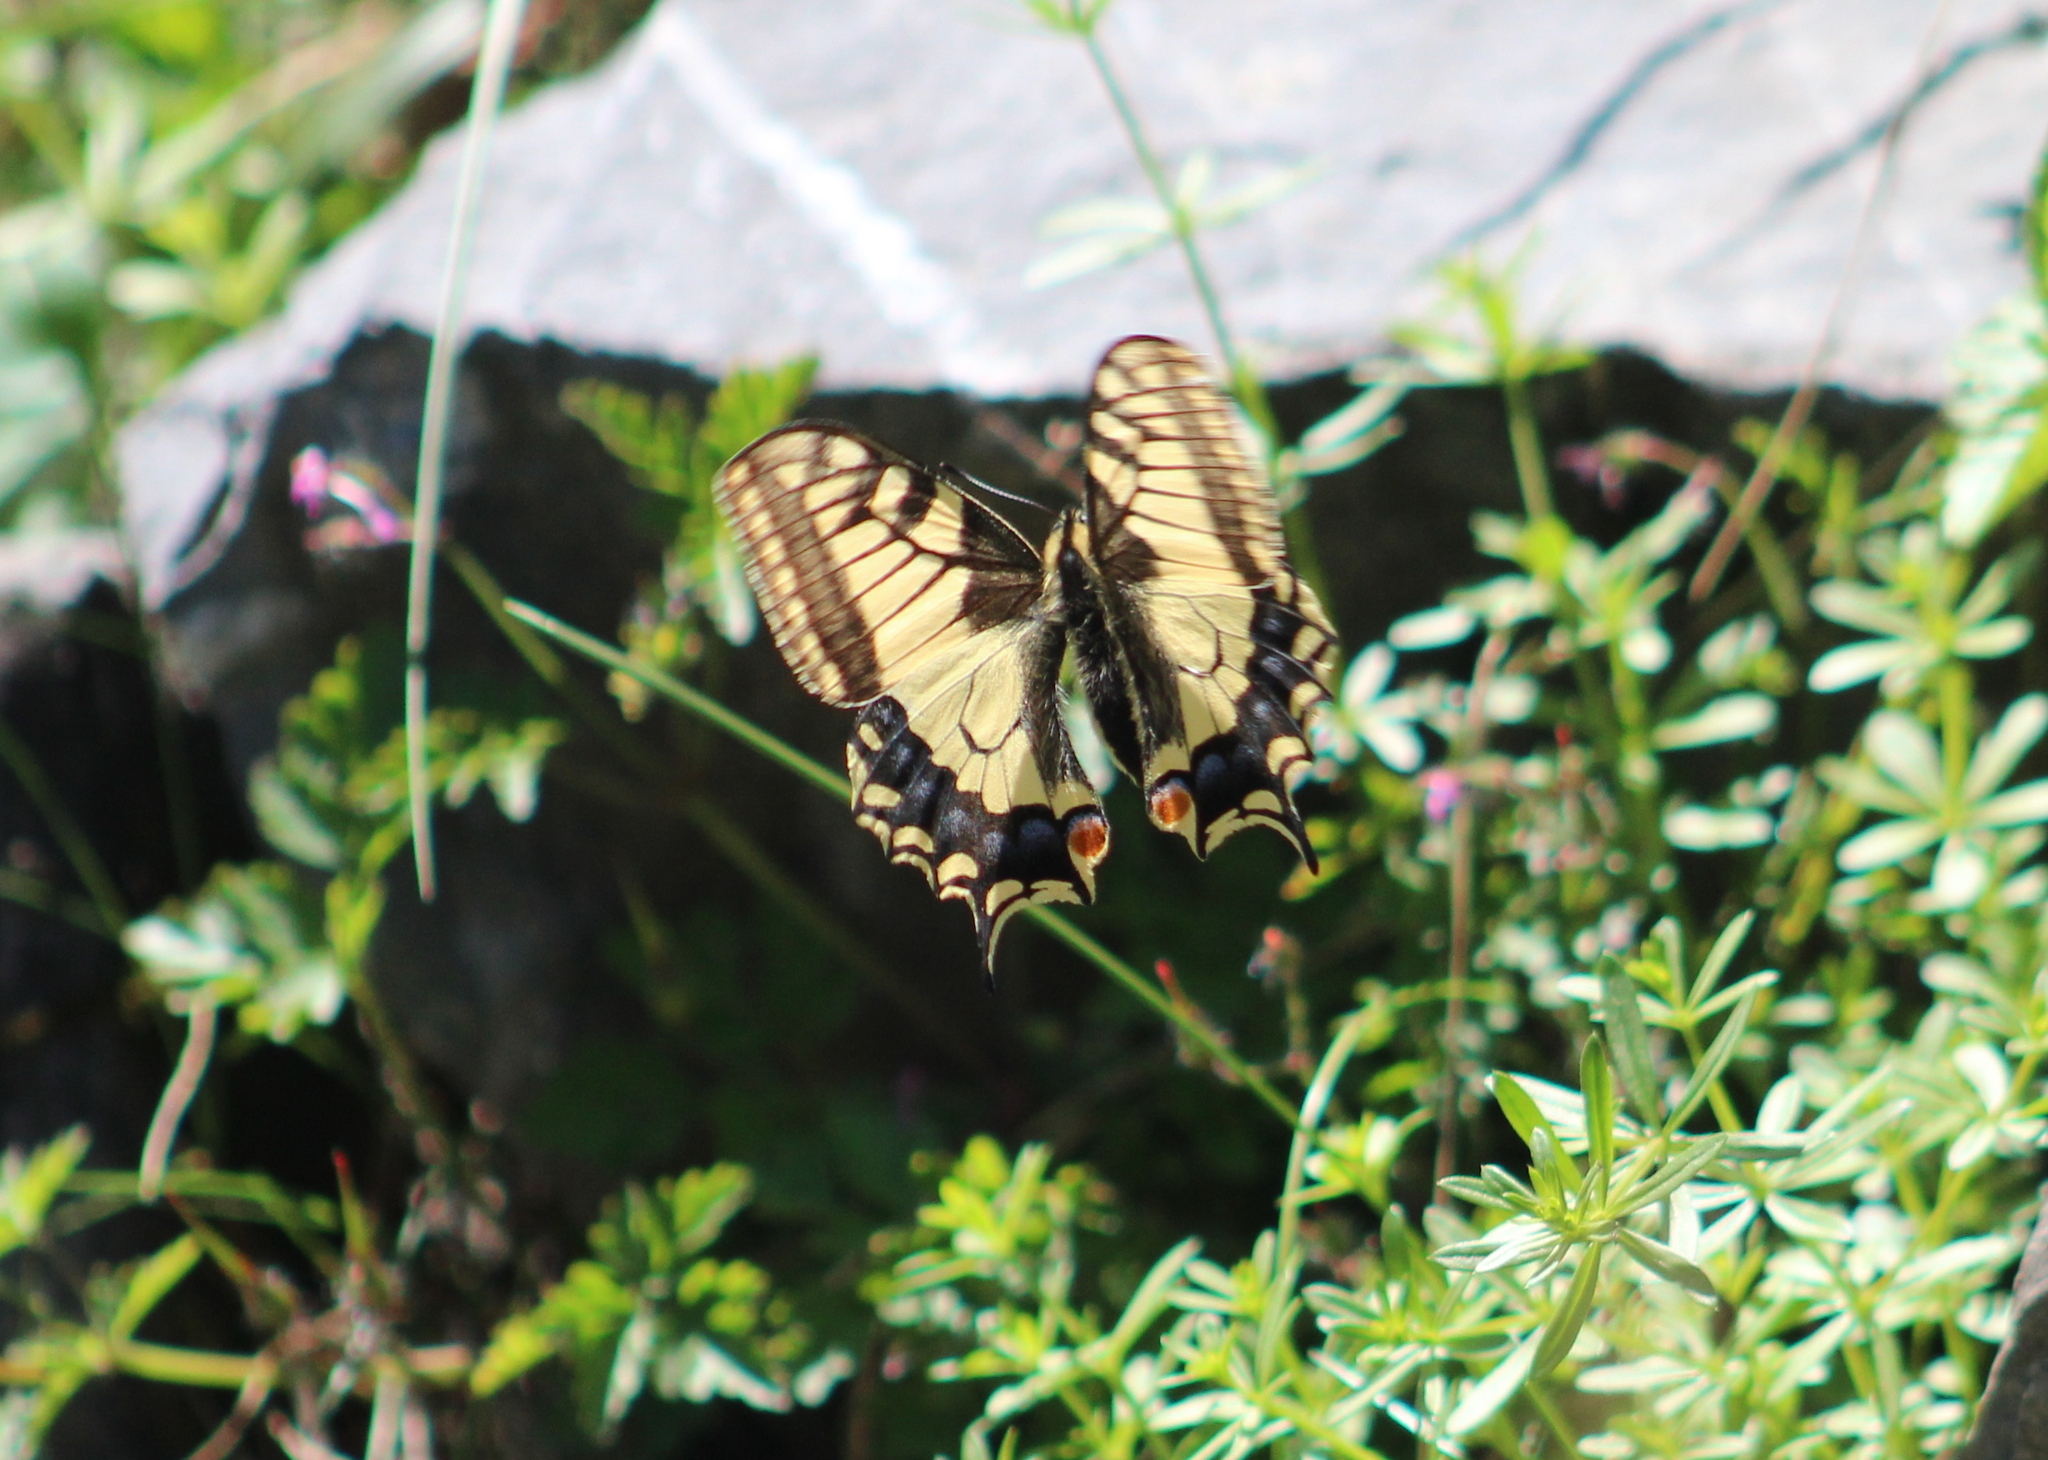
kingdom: Animalia
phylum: Arthropoda
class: Insecta
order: Lepidoptera
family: Papilionidae
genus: Papilio
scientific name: Papilio machaon
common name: Swallowtail
